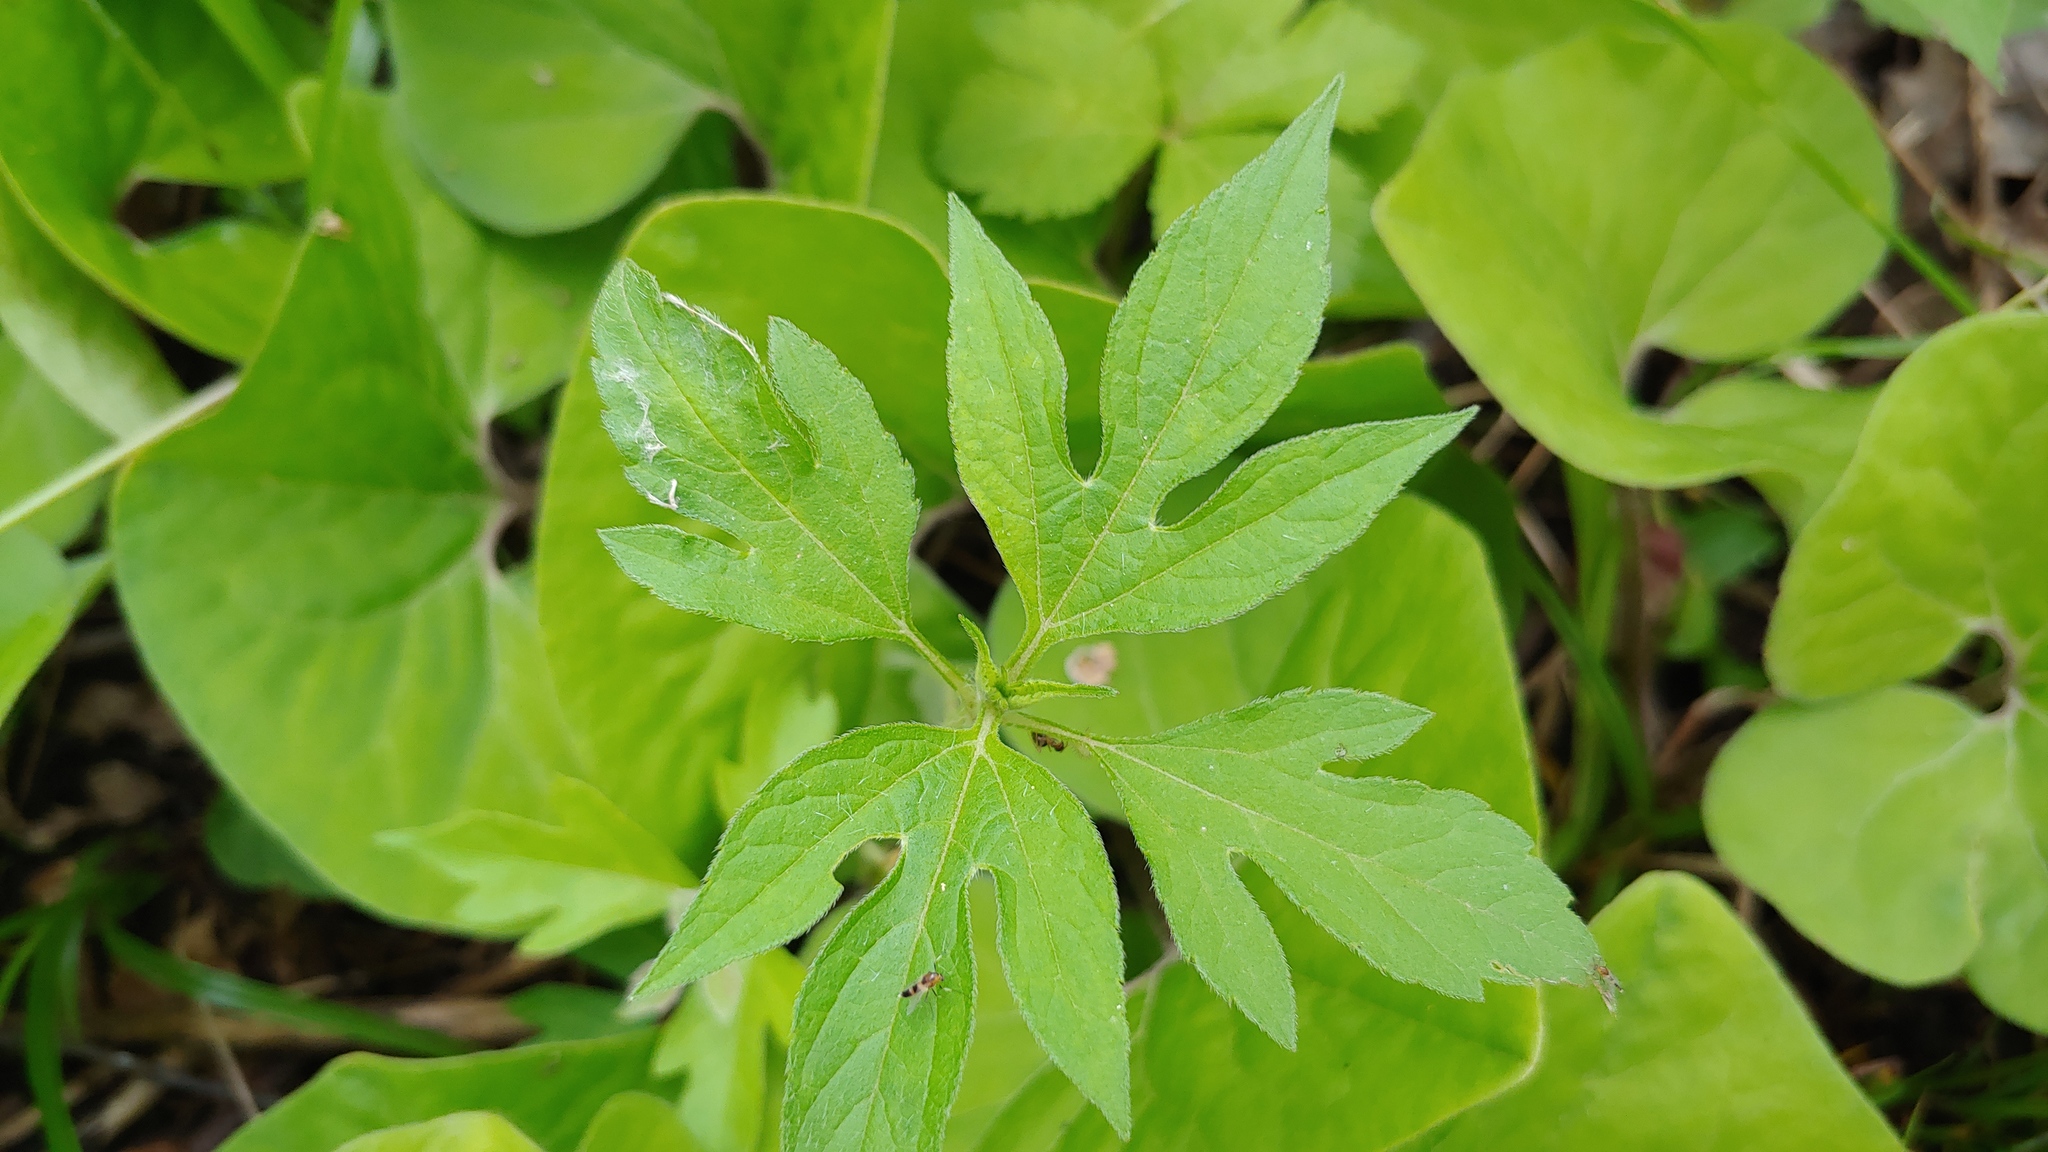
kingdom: Plantae
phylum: Tracheophyta
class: Magnoliopsida
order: Asterales
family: Asteraceae
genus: Ambrosia
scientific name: Ambrosia trifida
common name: Giant ragweed
